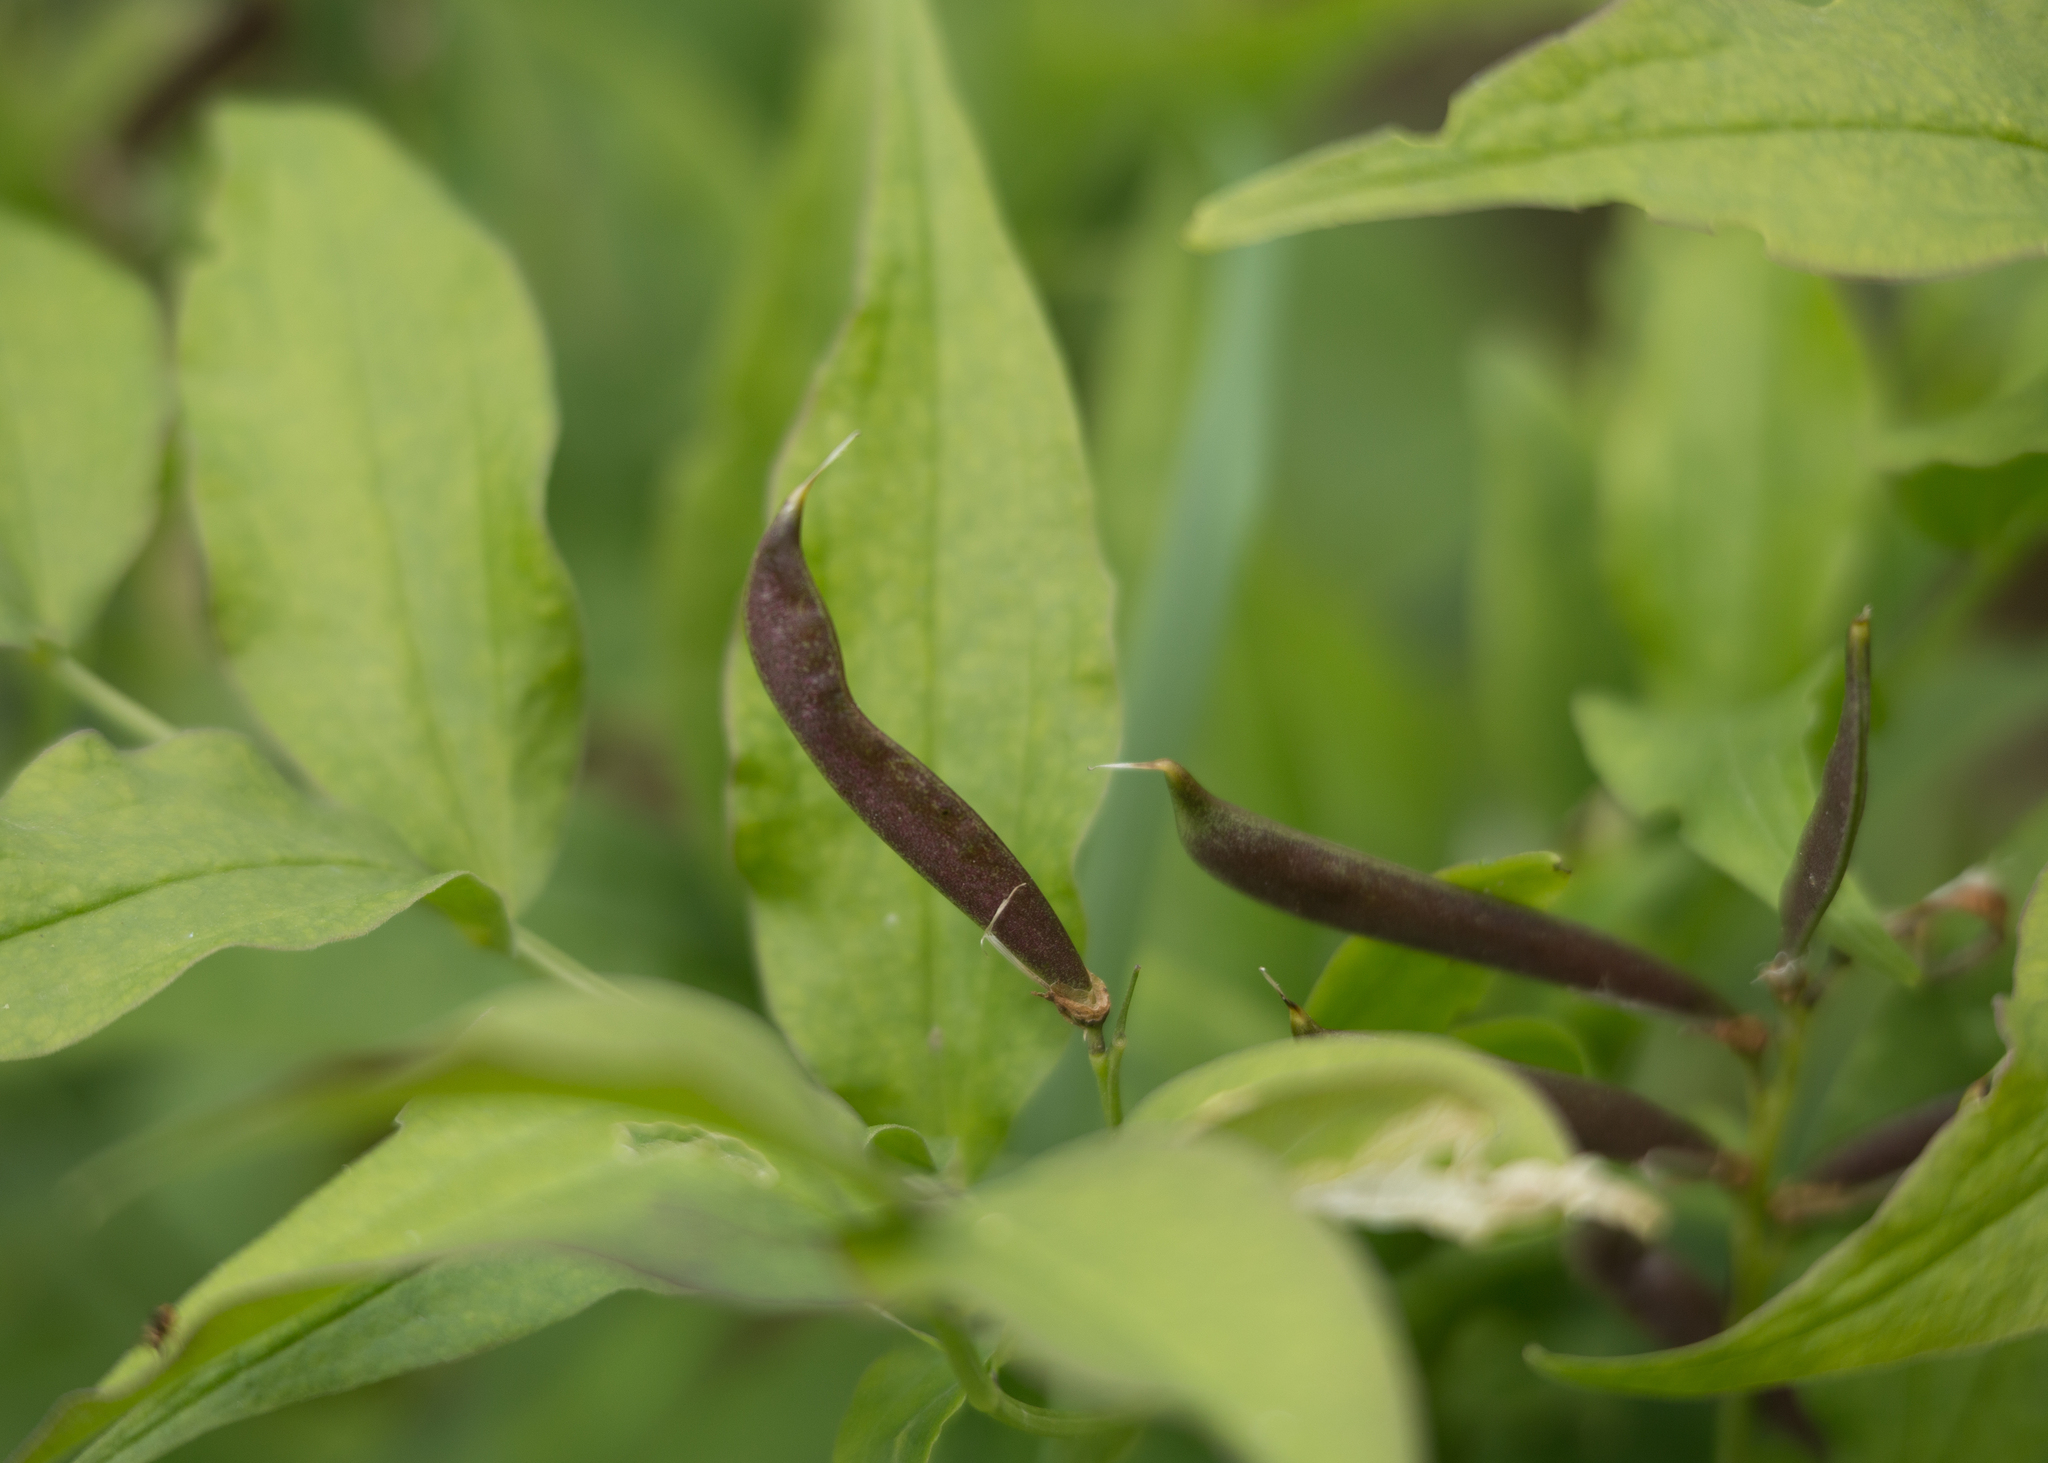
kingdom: Plantae
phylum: Tracheophyta
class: Magnoliopsida
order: Fabales
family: Fabaceae
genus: Lathyrus
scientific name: Lathyrus vernus
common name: Spring pea
